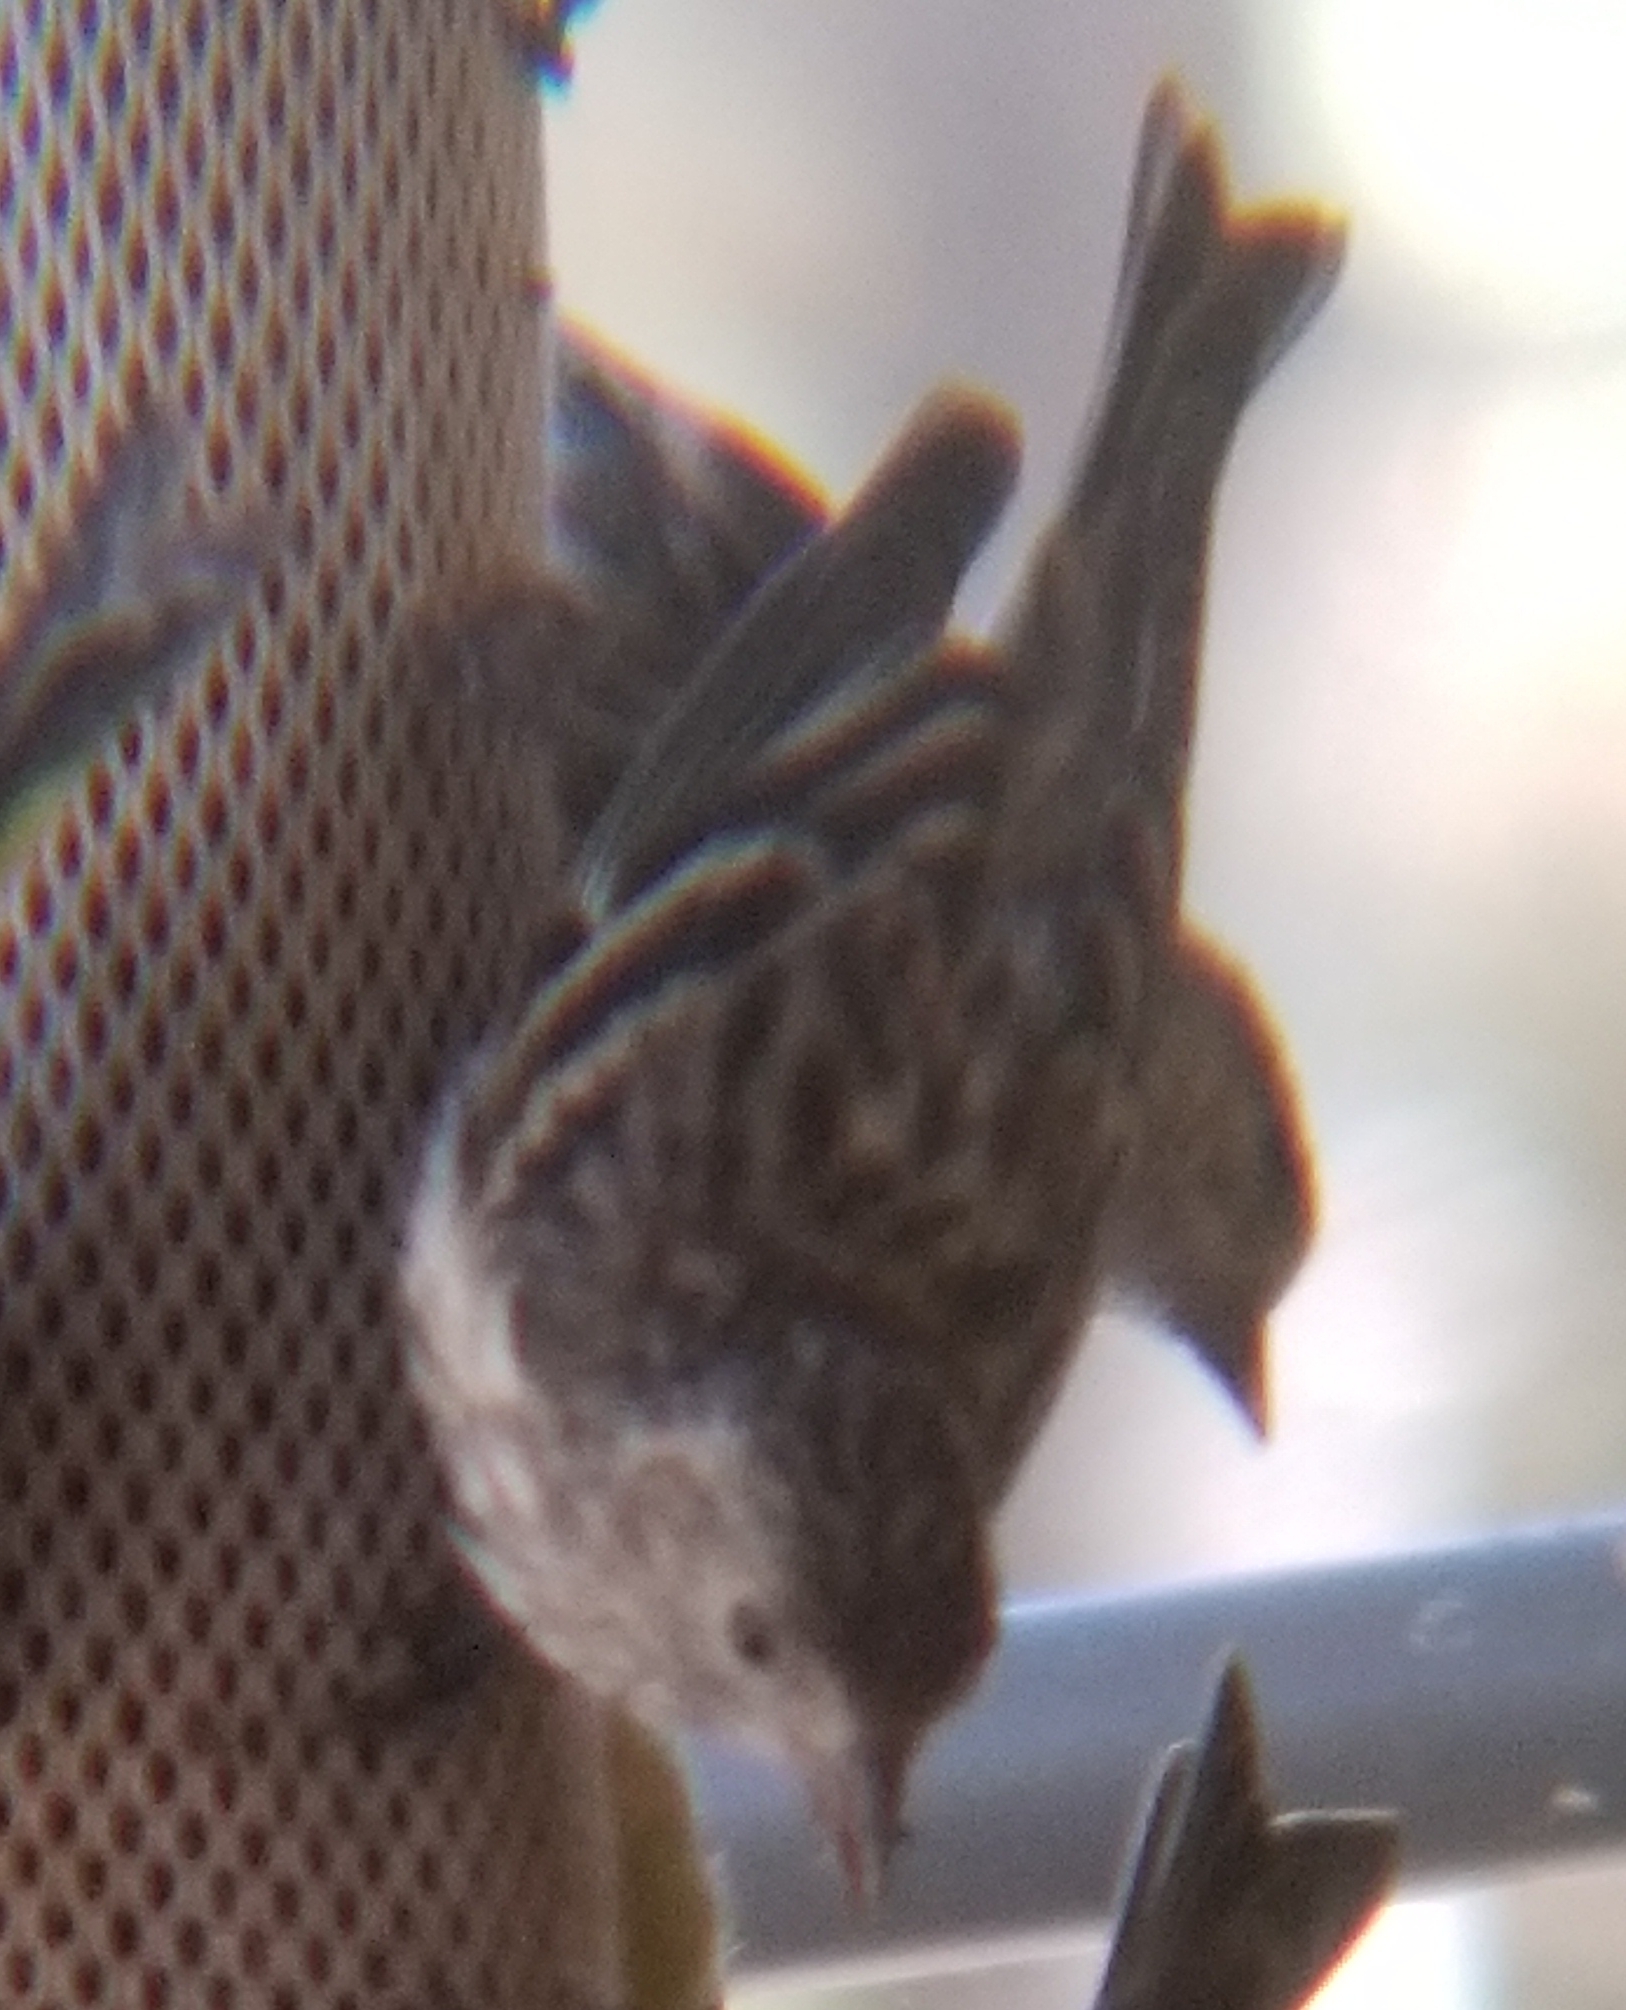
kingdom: Animalia
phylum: Chordata
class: Aves
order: Passeriformes
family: Fringillidae
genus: Spinus
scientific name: Spinus pinus
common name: Pine siskin
